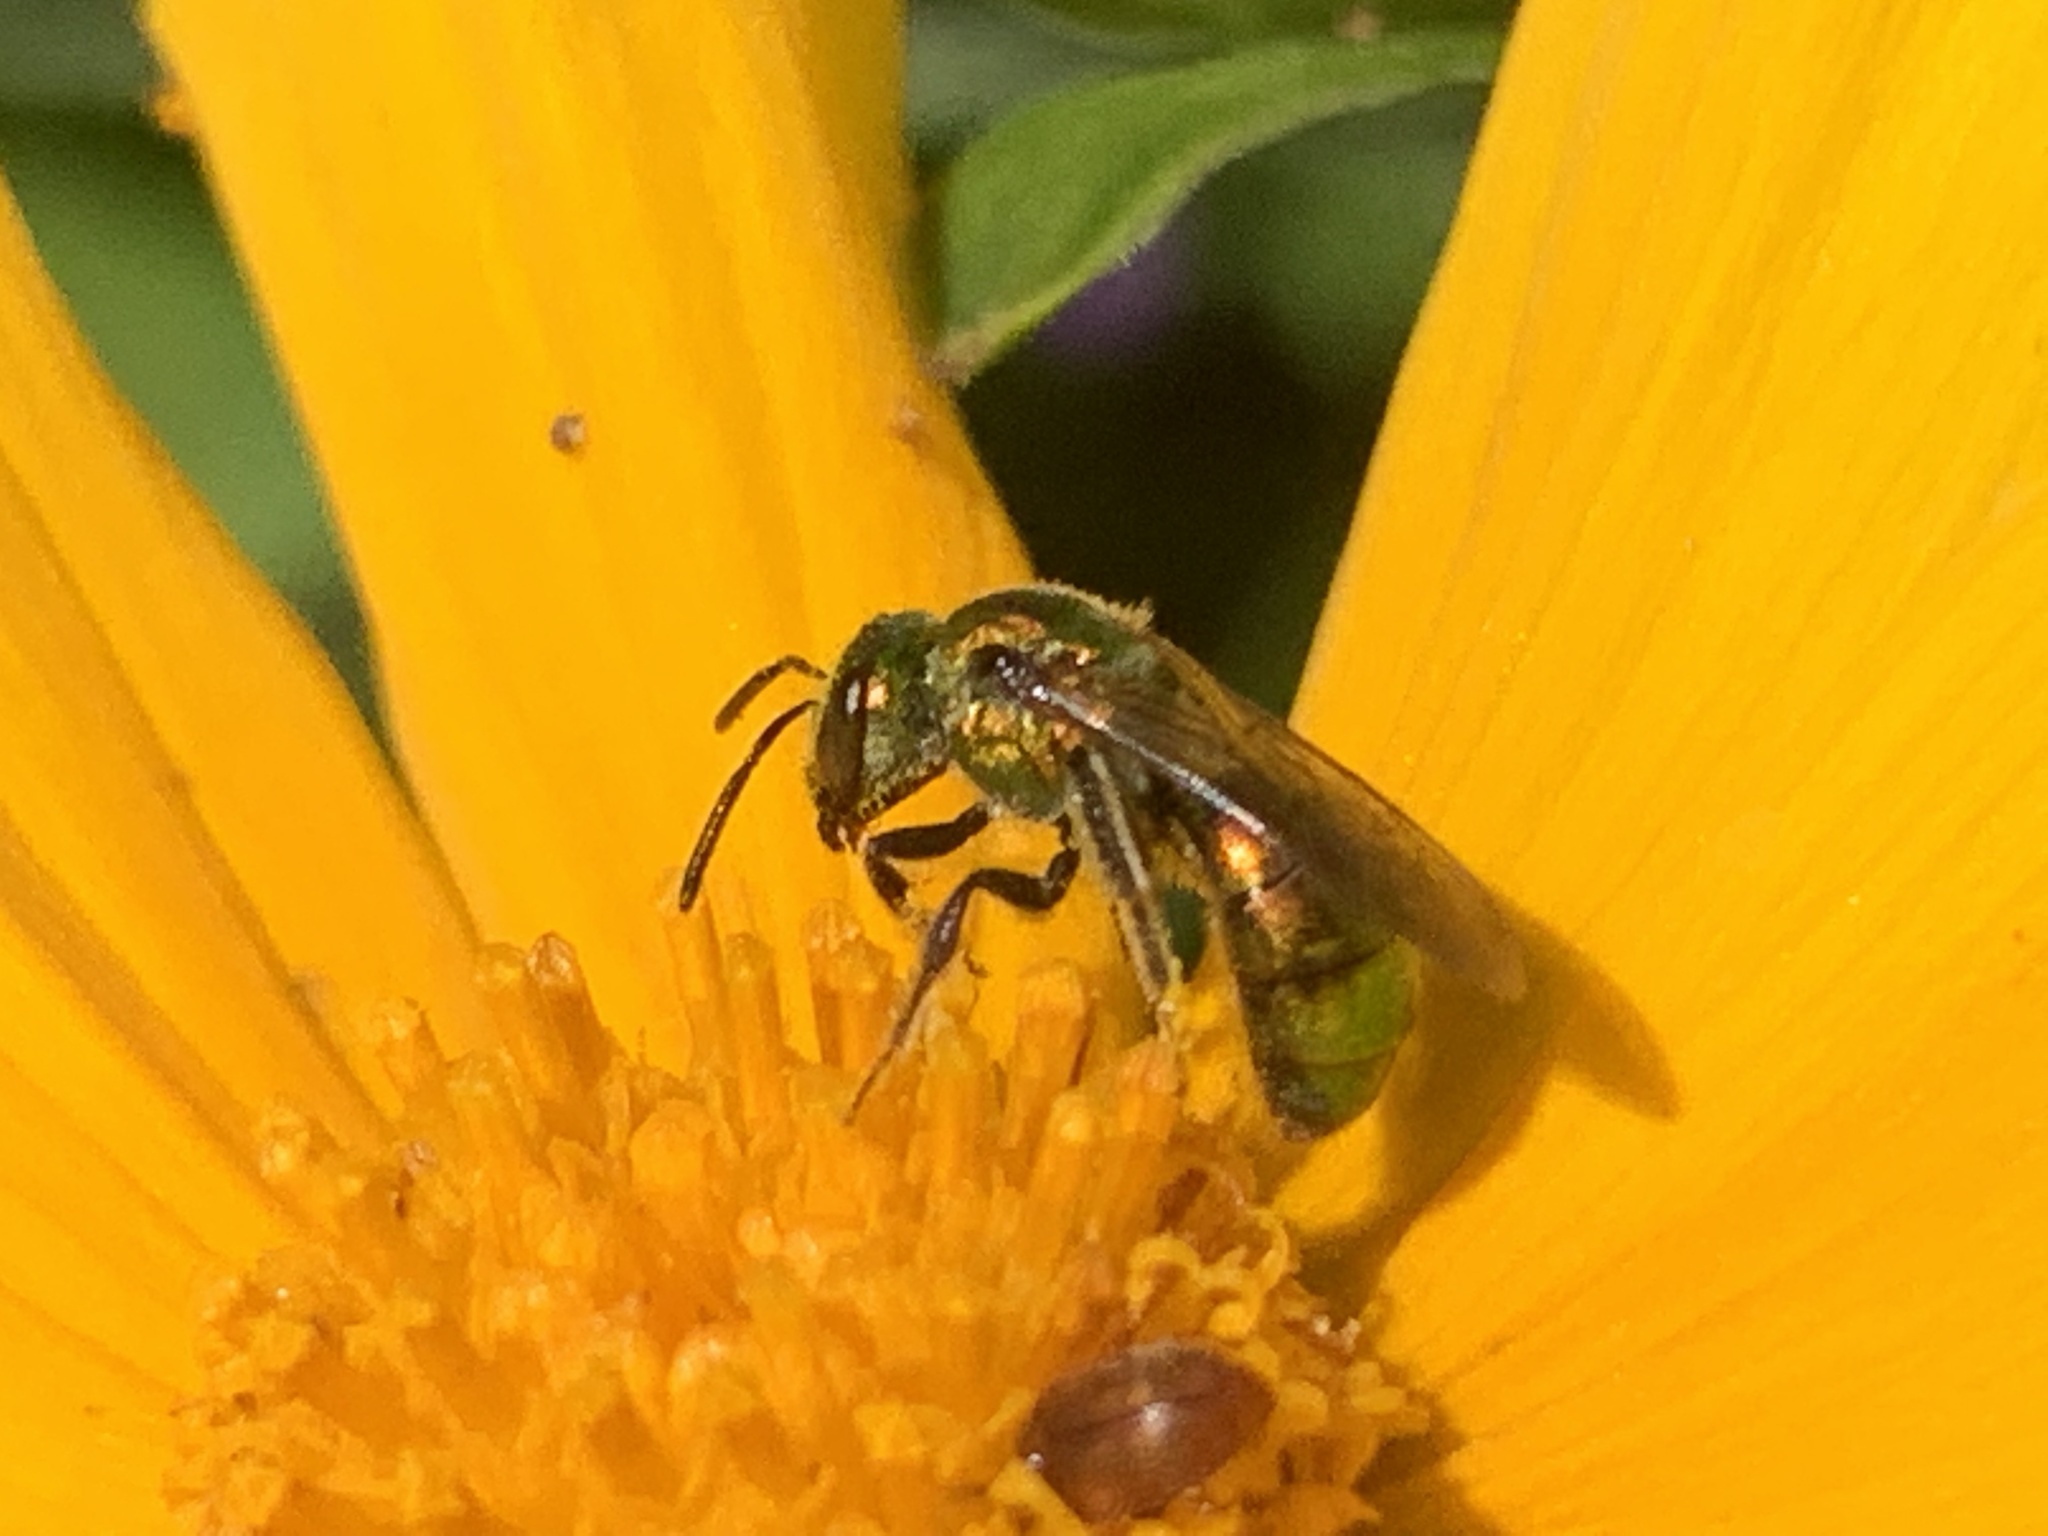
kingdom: Animalia
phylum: Arthropoda
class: Insecta
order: Hymenoptera
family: Halictidae
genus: Augochlora
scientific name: Augochlora pura
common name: Pure green sweat bee
